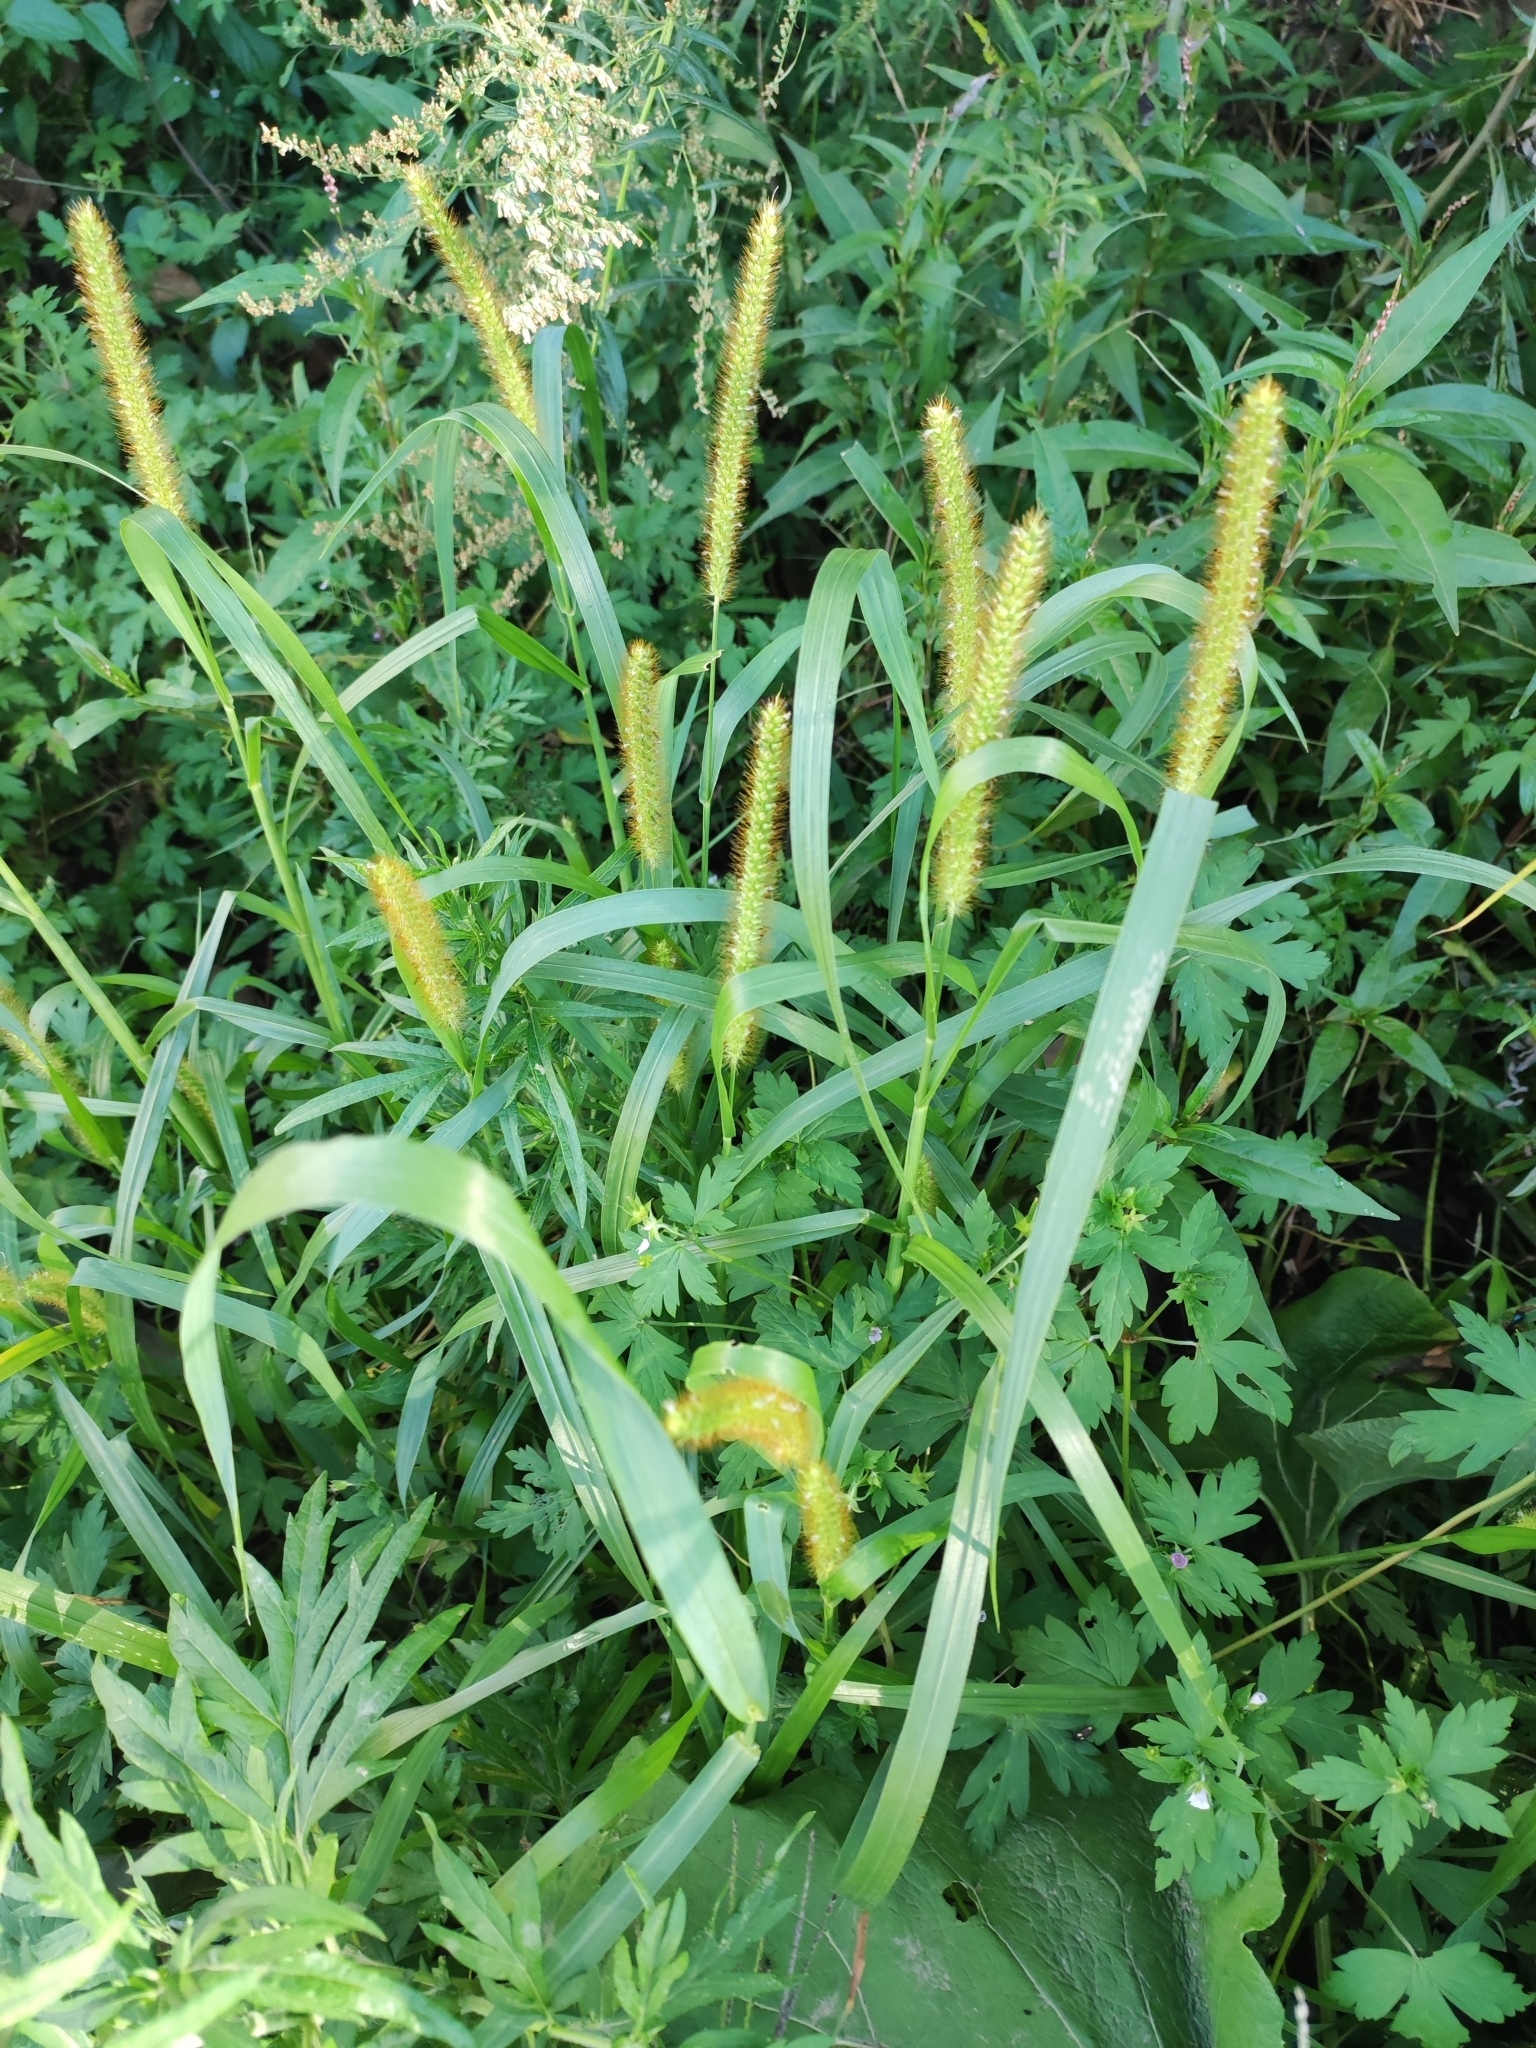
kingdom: Plantae
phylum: Tracheophyta
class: Liliopsida
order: Poales
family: Poaceae
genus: Setaria
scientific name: Setaria pumila
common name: Yellow bristle-grass
